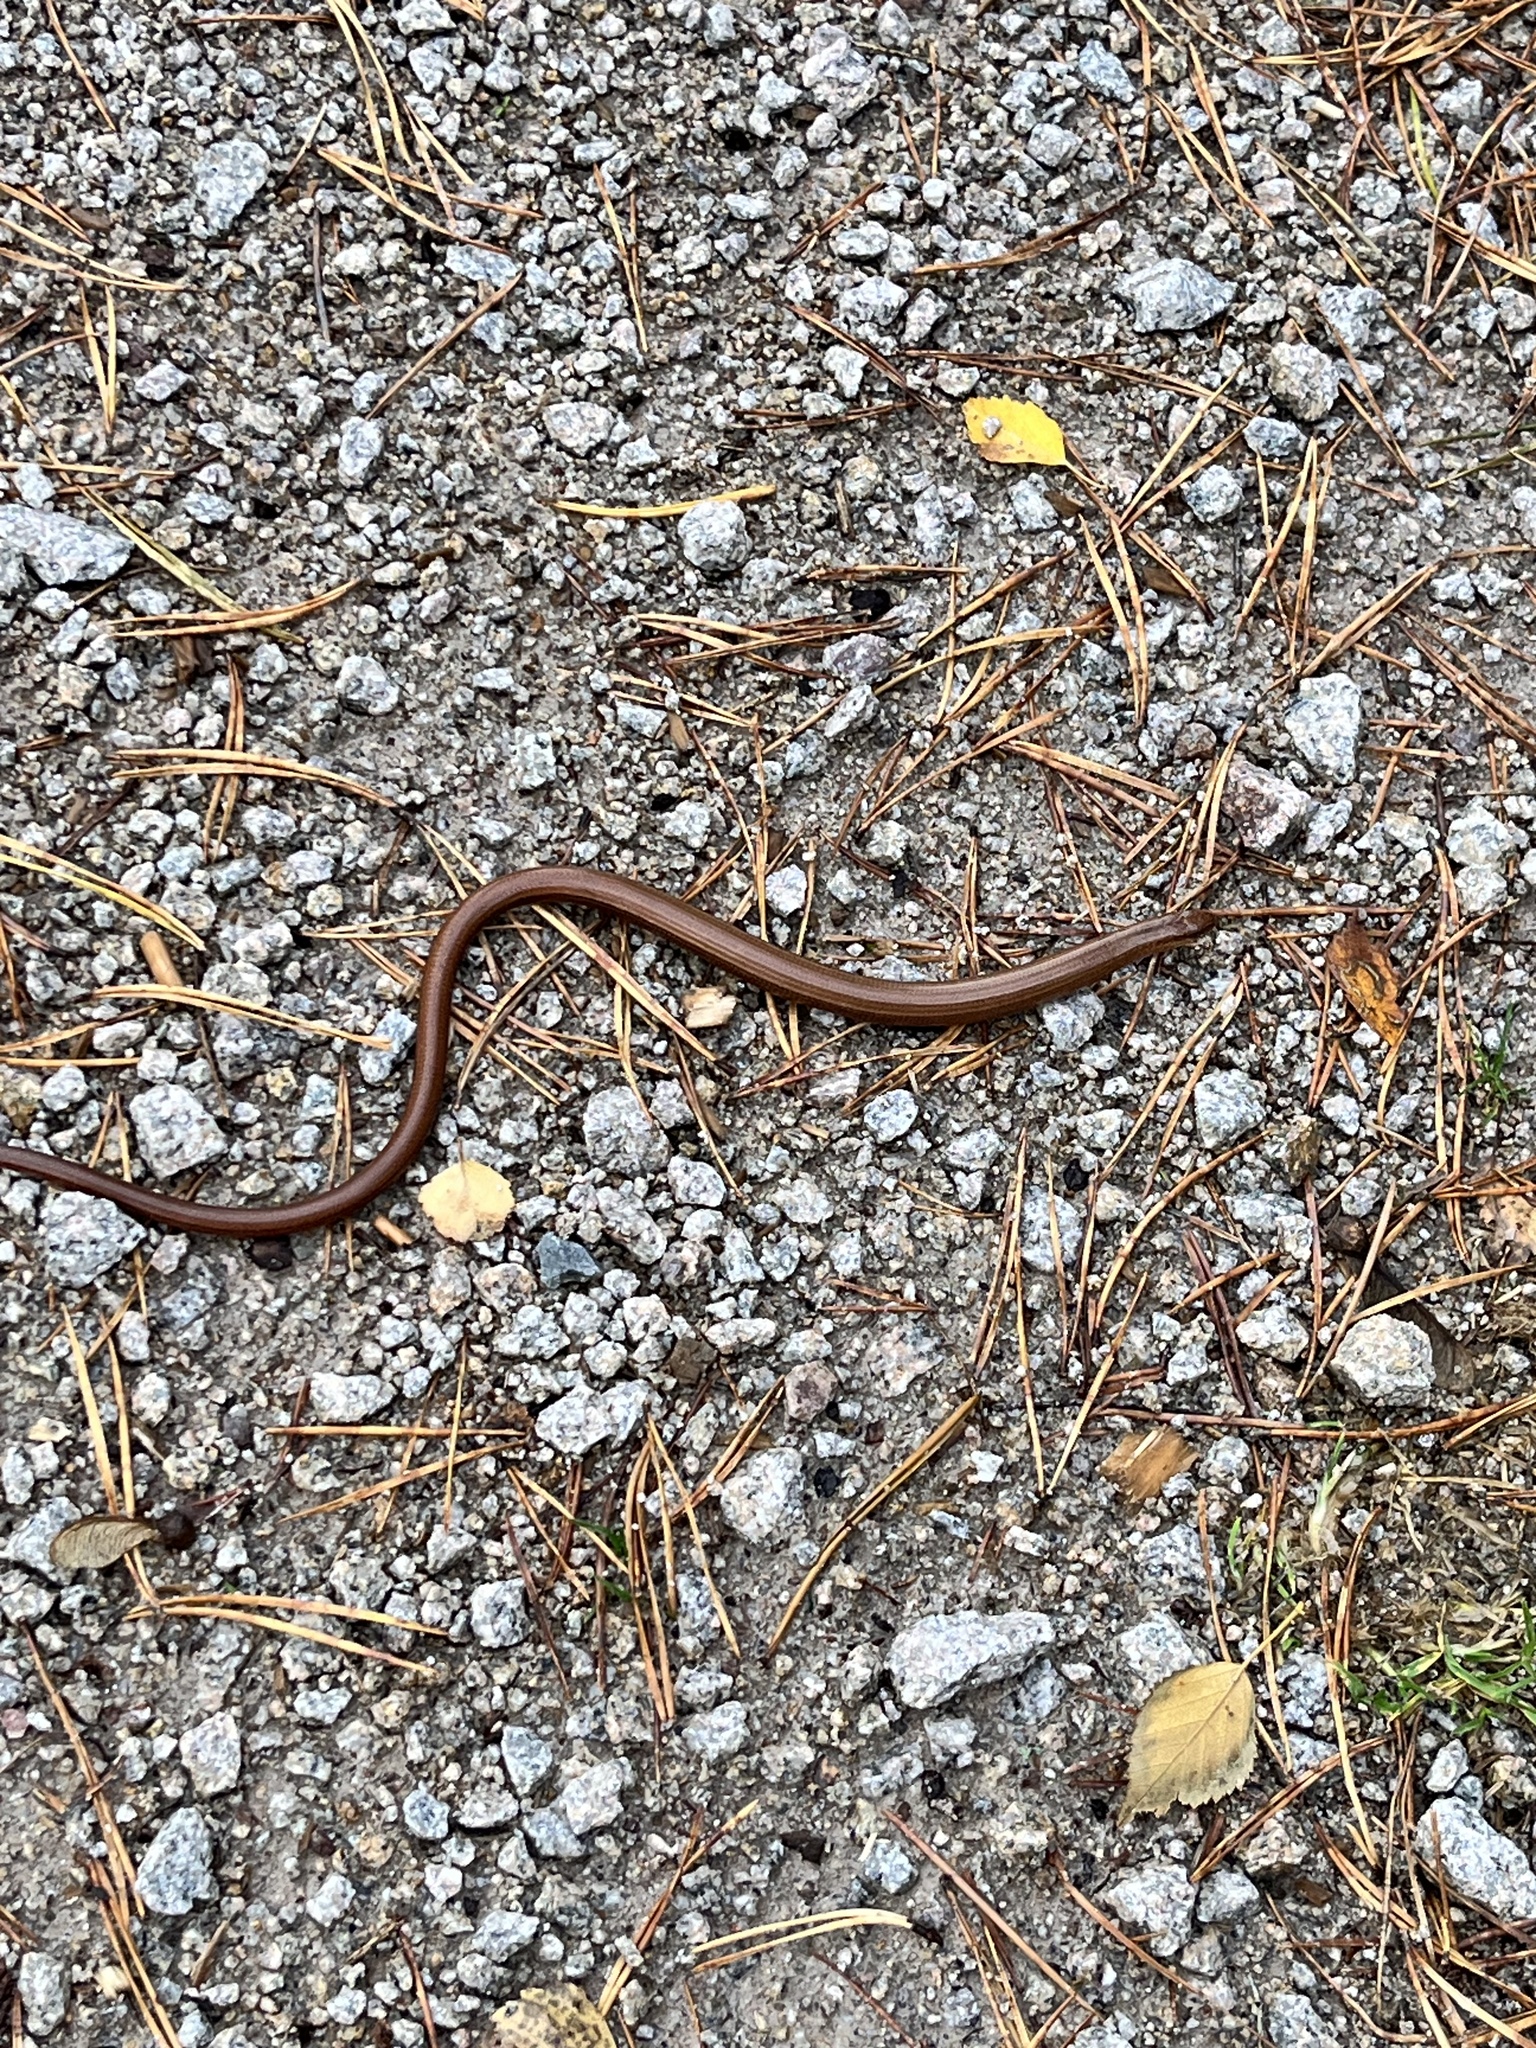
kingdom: Animalia
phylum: Chordata
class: Squamata
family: Anguidae
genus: Anguis
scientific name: Anguis fragilis
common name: Slow worm
